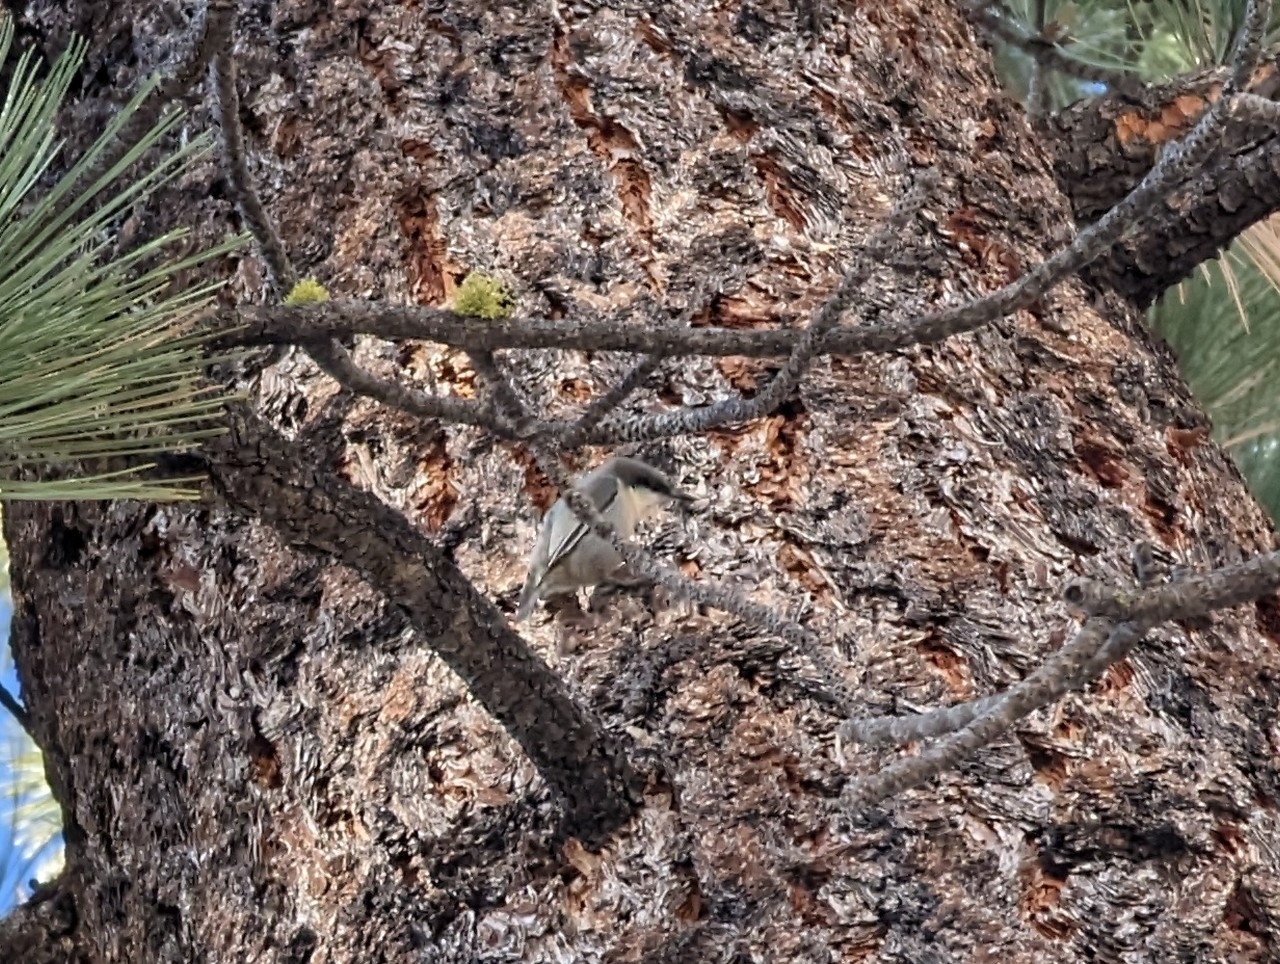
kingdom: Animalia
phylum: Chordata
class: Aves
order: Passeriformes
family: Sittidae
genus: Sitta
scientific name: Sitta pygmaea
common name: Pygmy nuthatch
